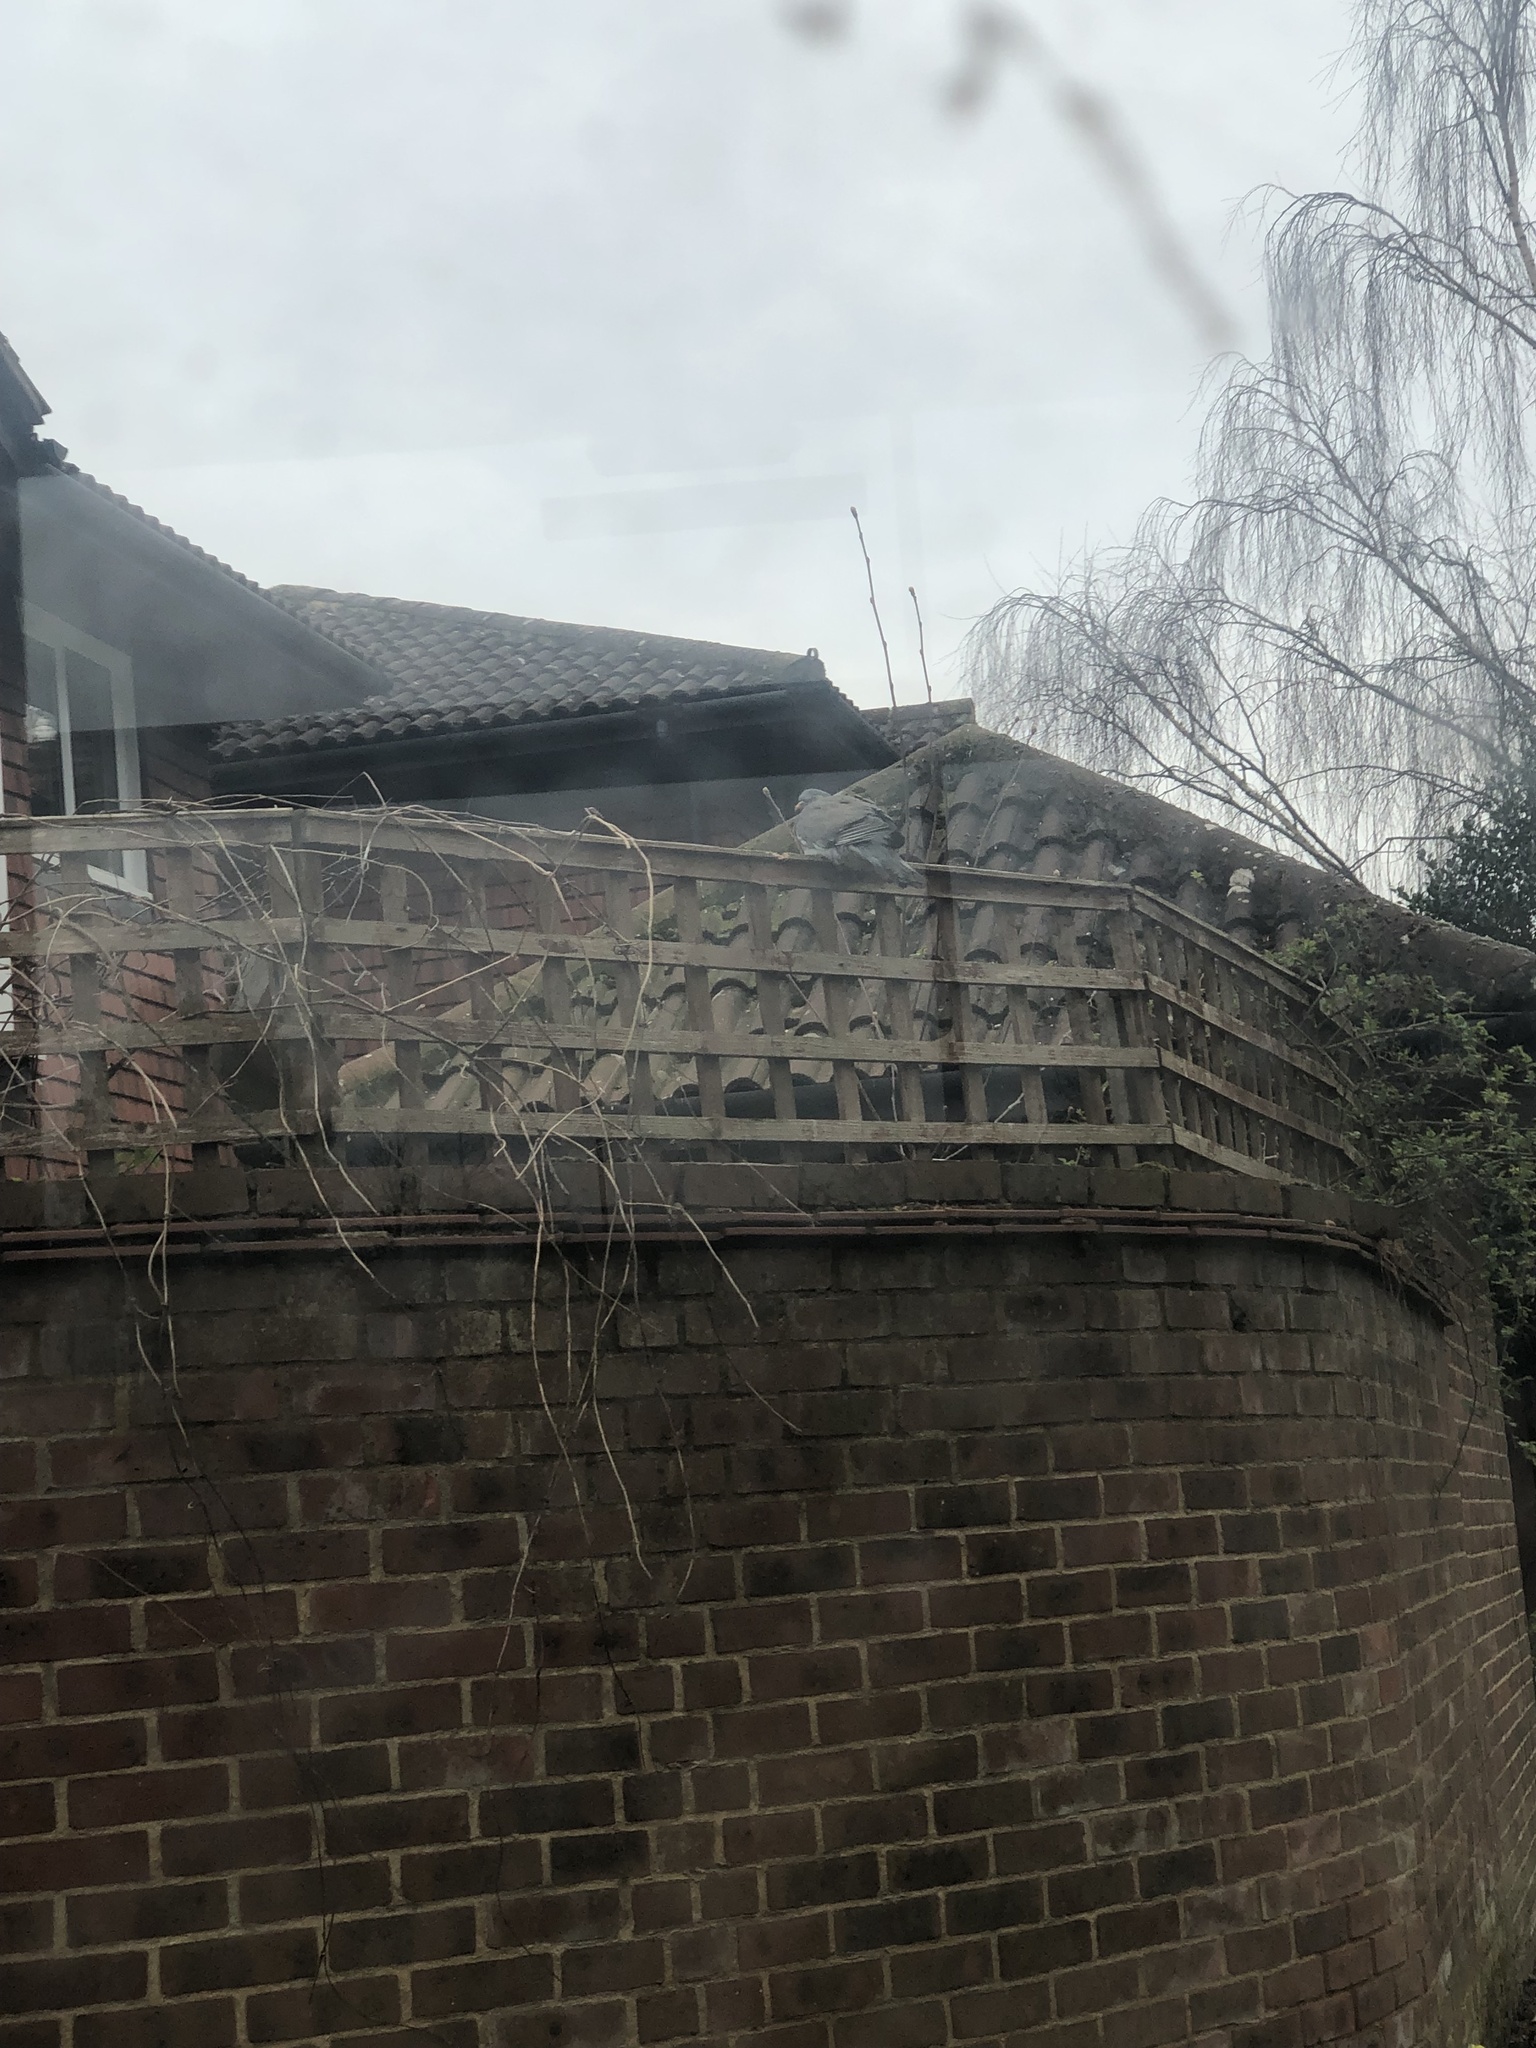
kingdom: Animalia
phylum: Chordata
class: Aves
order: Columbiformes
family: Columbidae
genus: Columba
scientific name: Columba palumbus
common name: Common wood pigeon
